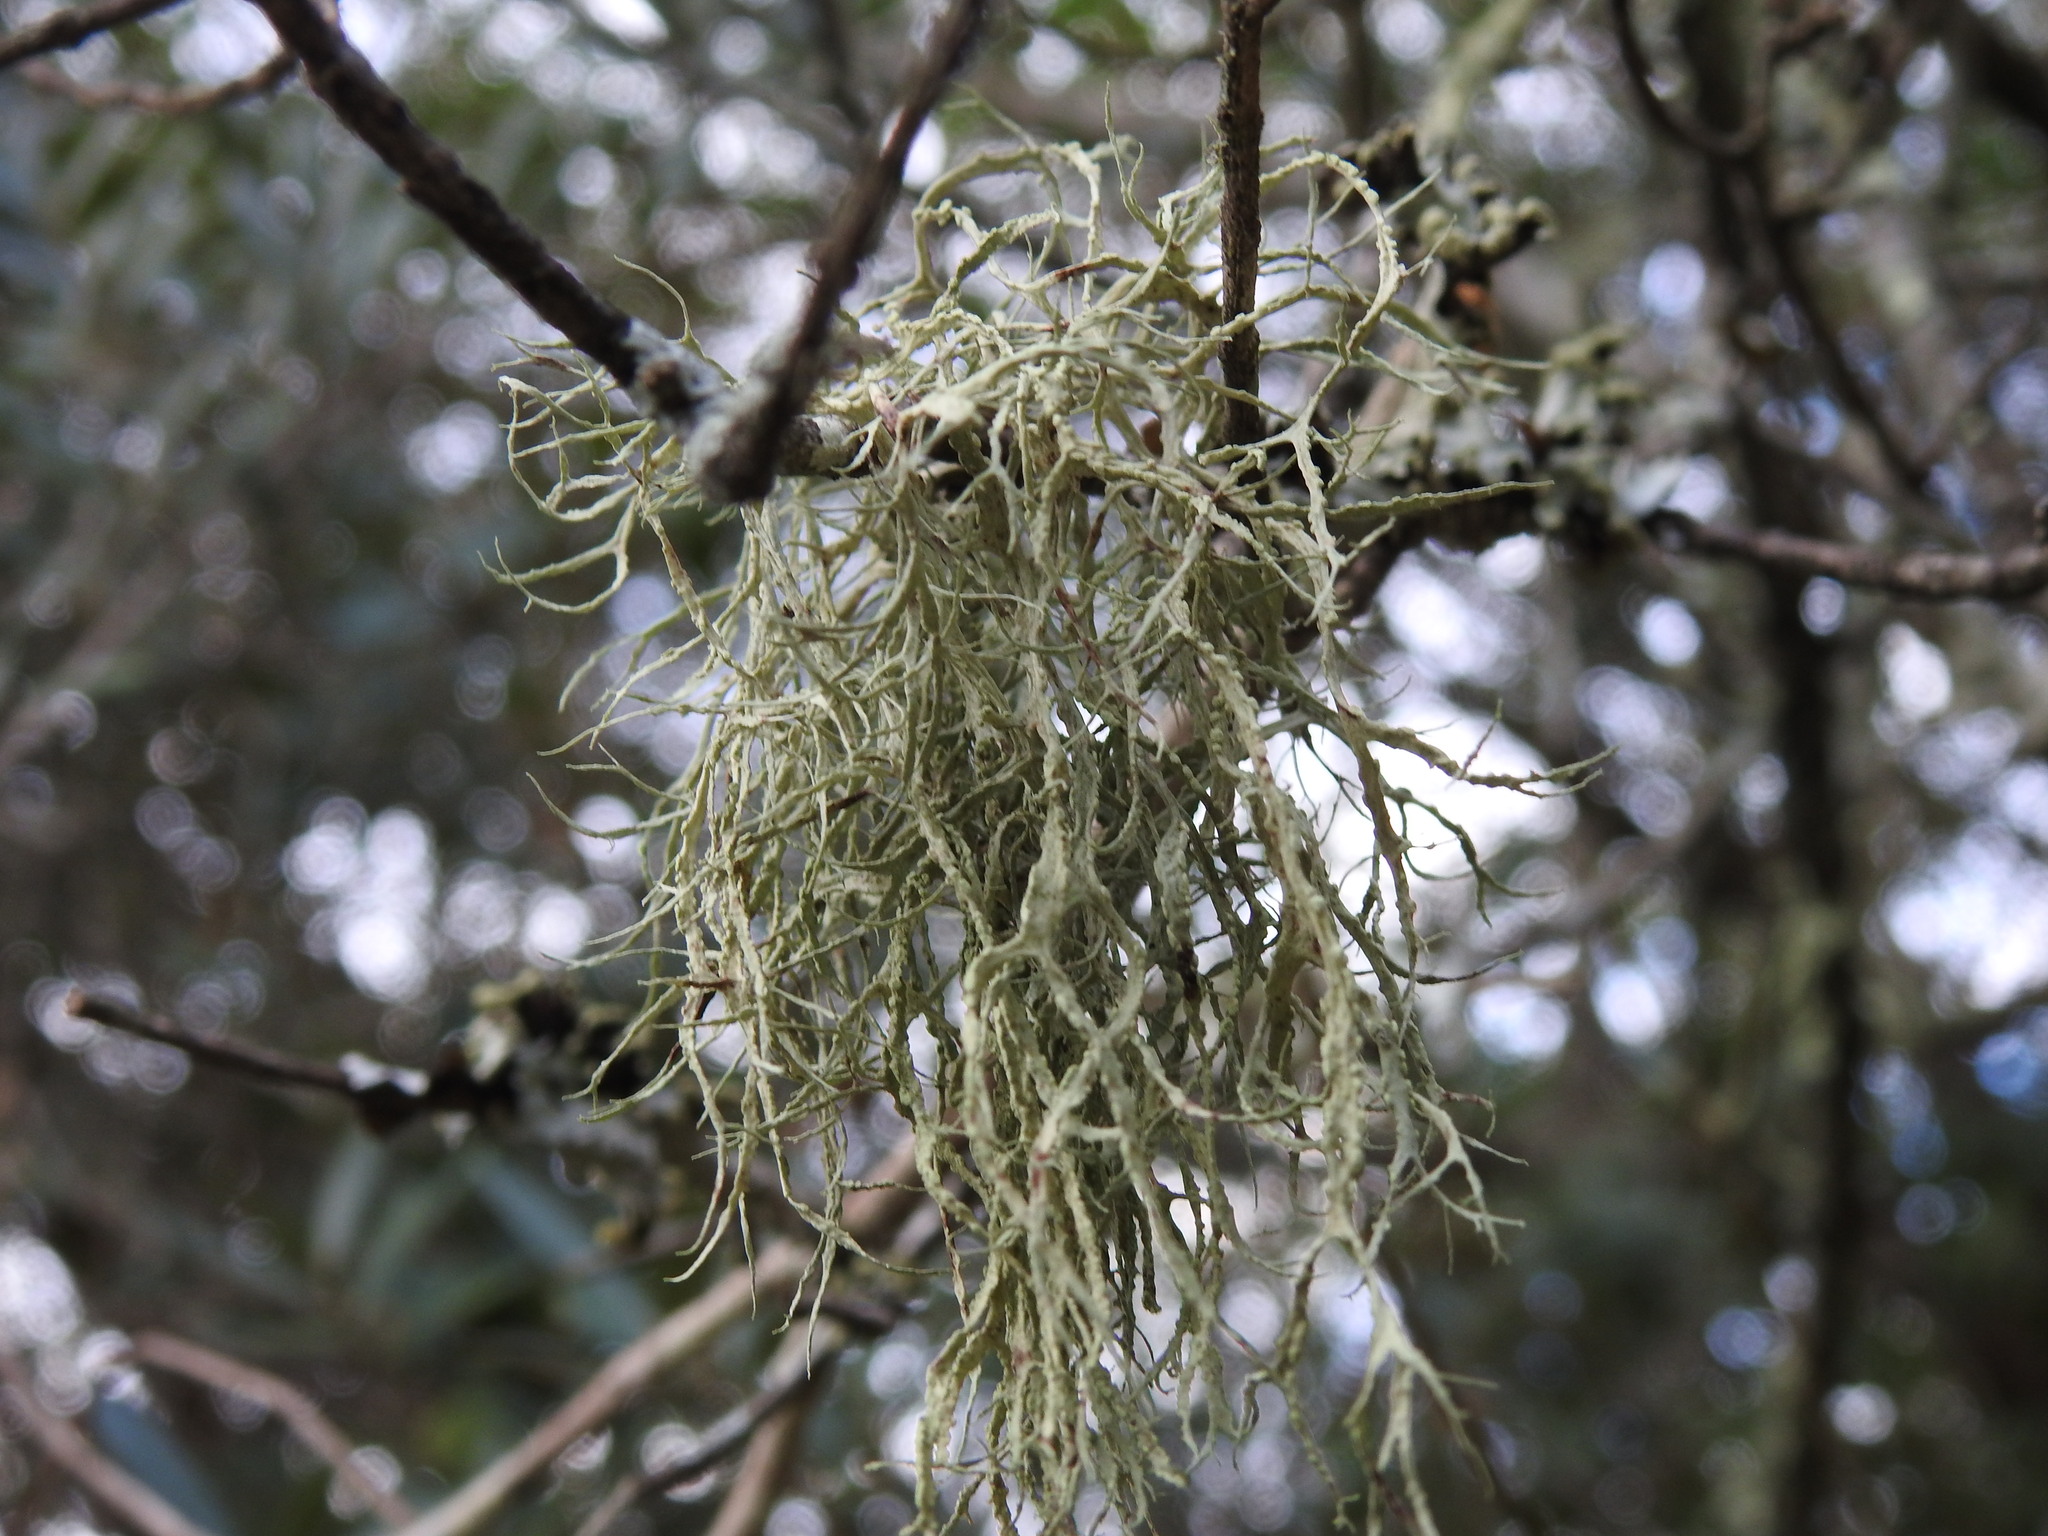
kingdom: Fungi
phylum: Ascomycota
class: Lecanoromycetes
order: Lecanorales
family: Ramalinaceae
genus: Ramalina
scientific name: Ramalina farinacea
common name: Farinose cartilage lichen
